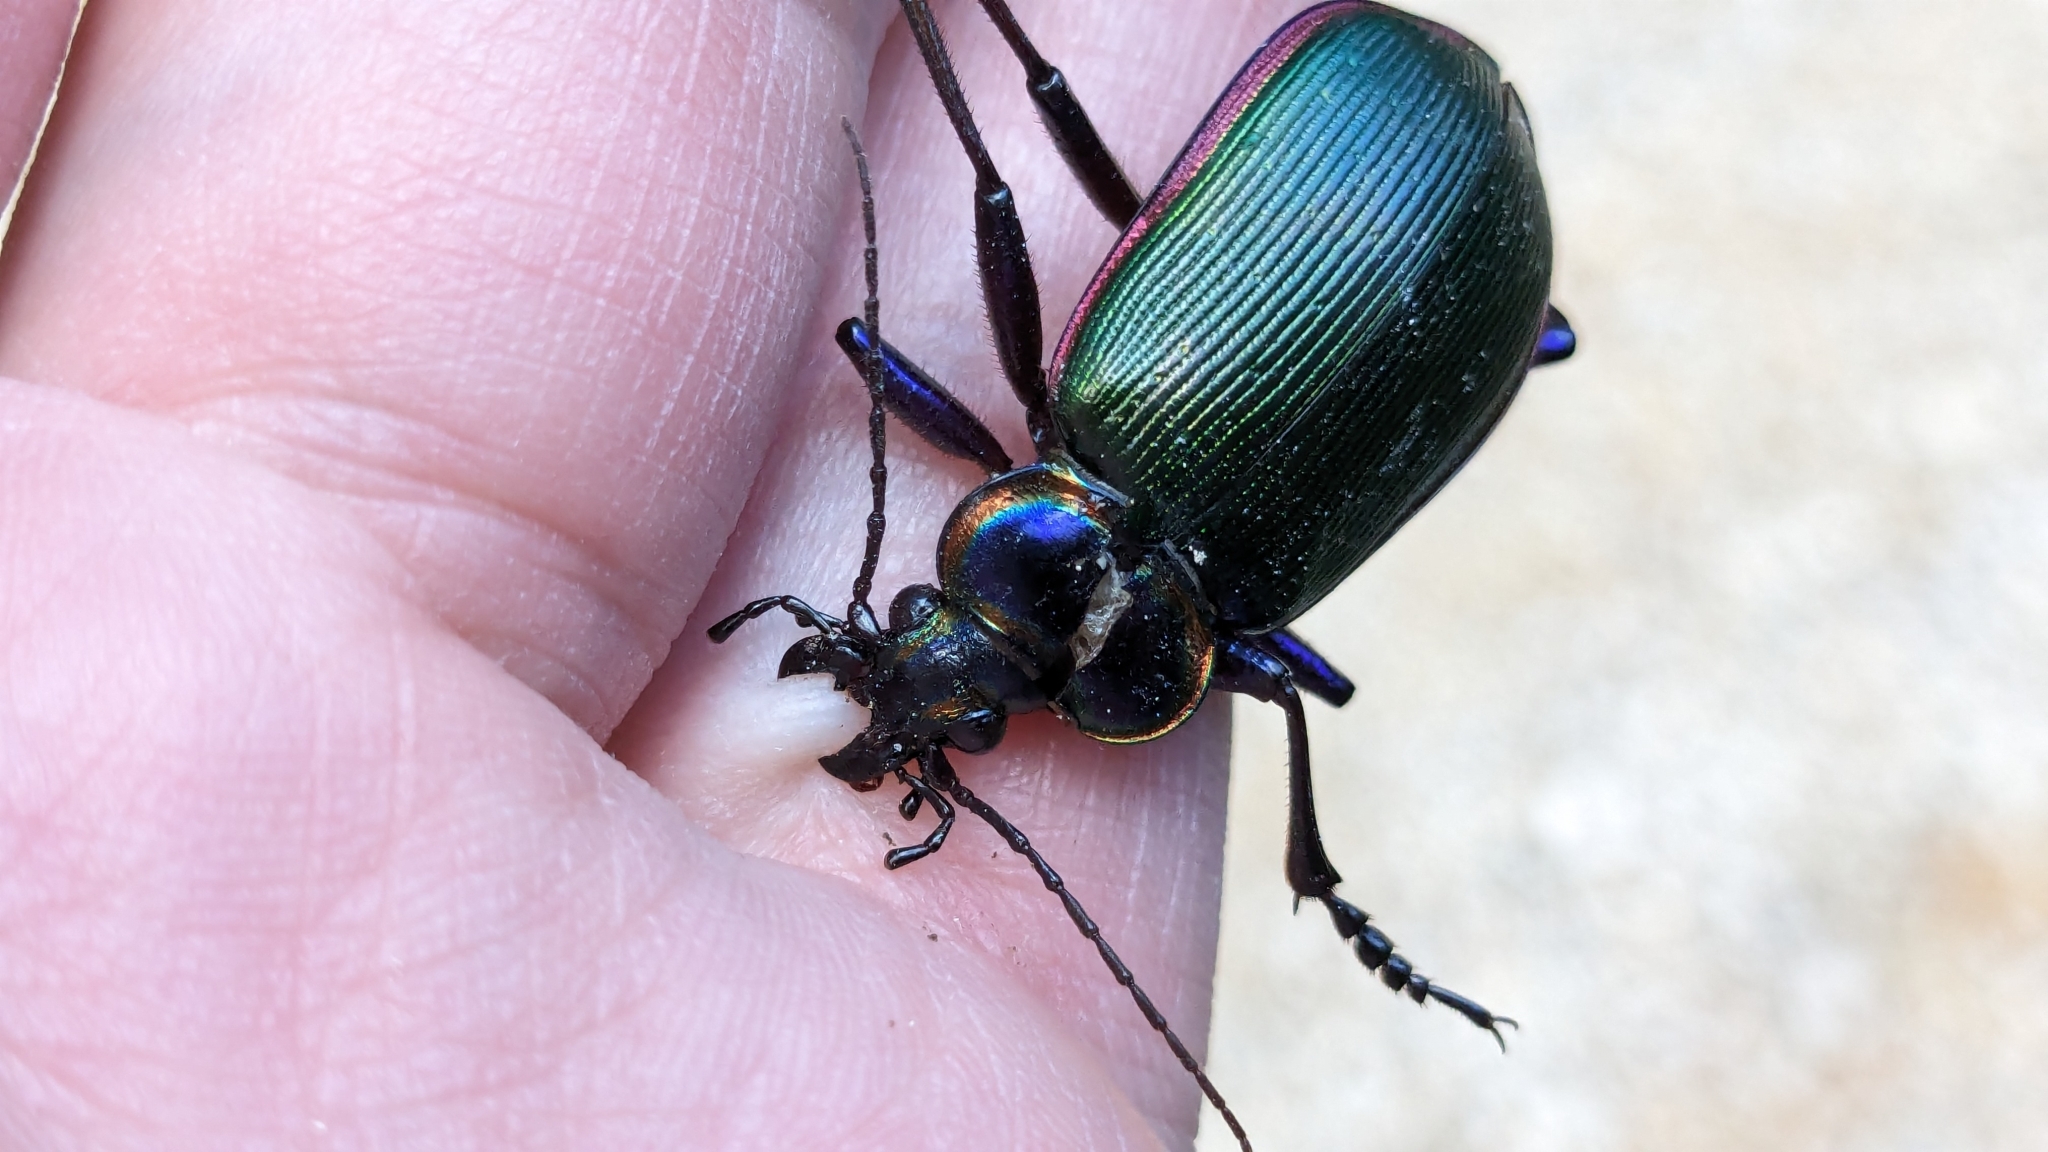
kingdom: Animalia
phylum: Arthropoda
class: Insecta
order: Coleoptera
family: Carabidae
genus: Calosoma
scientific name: Calosoma scrutator
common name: Fiery searcher beetle
